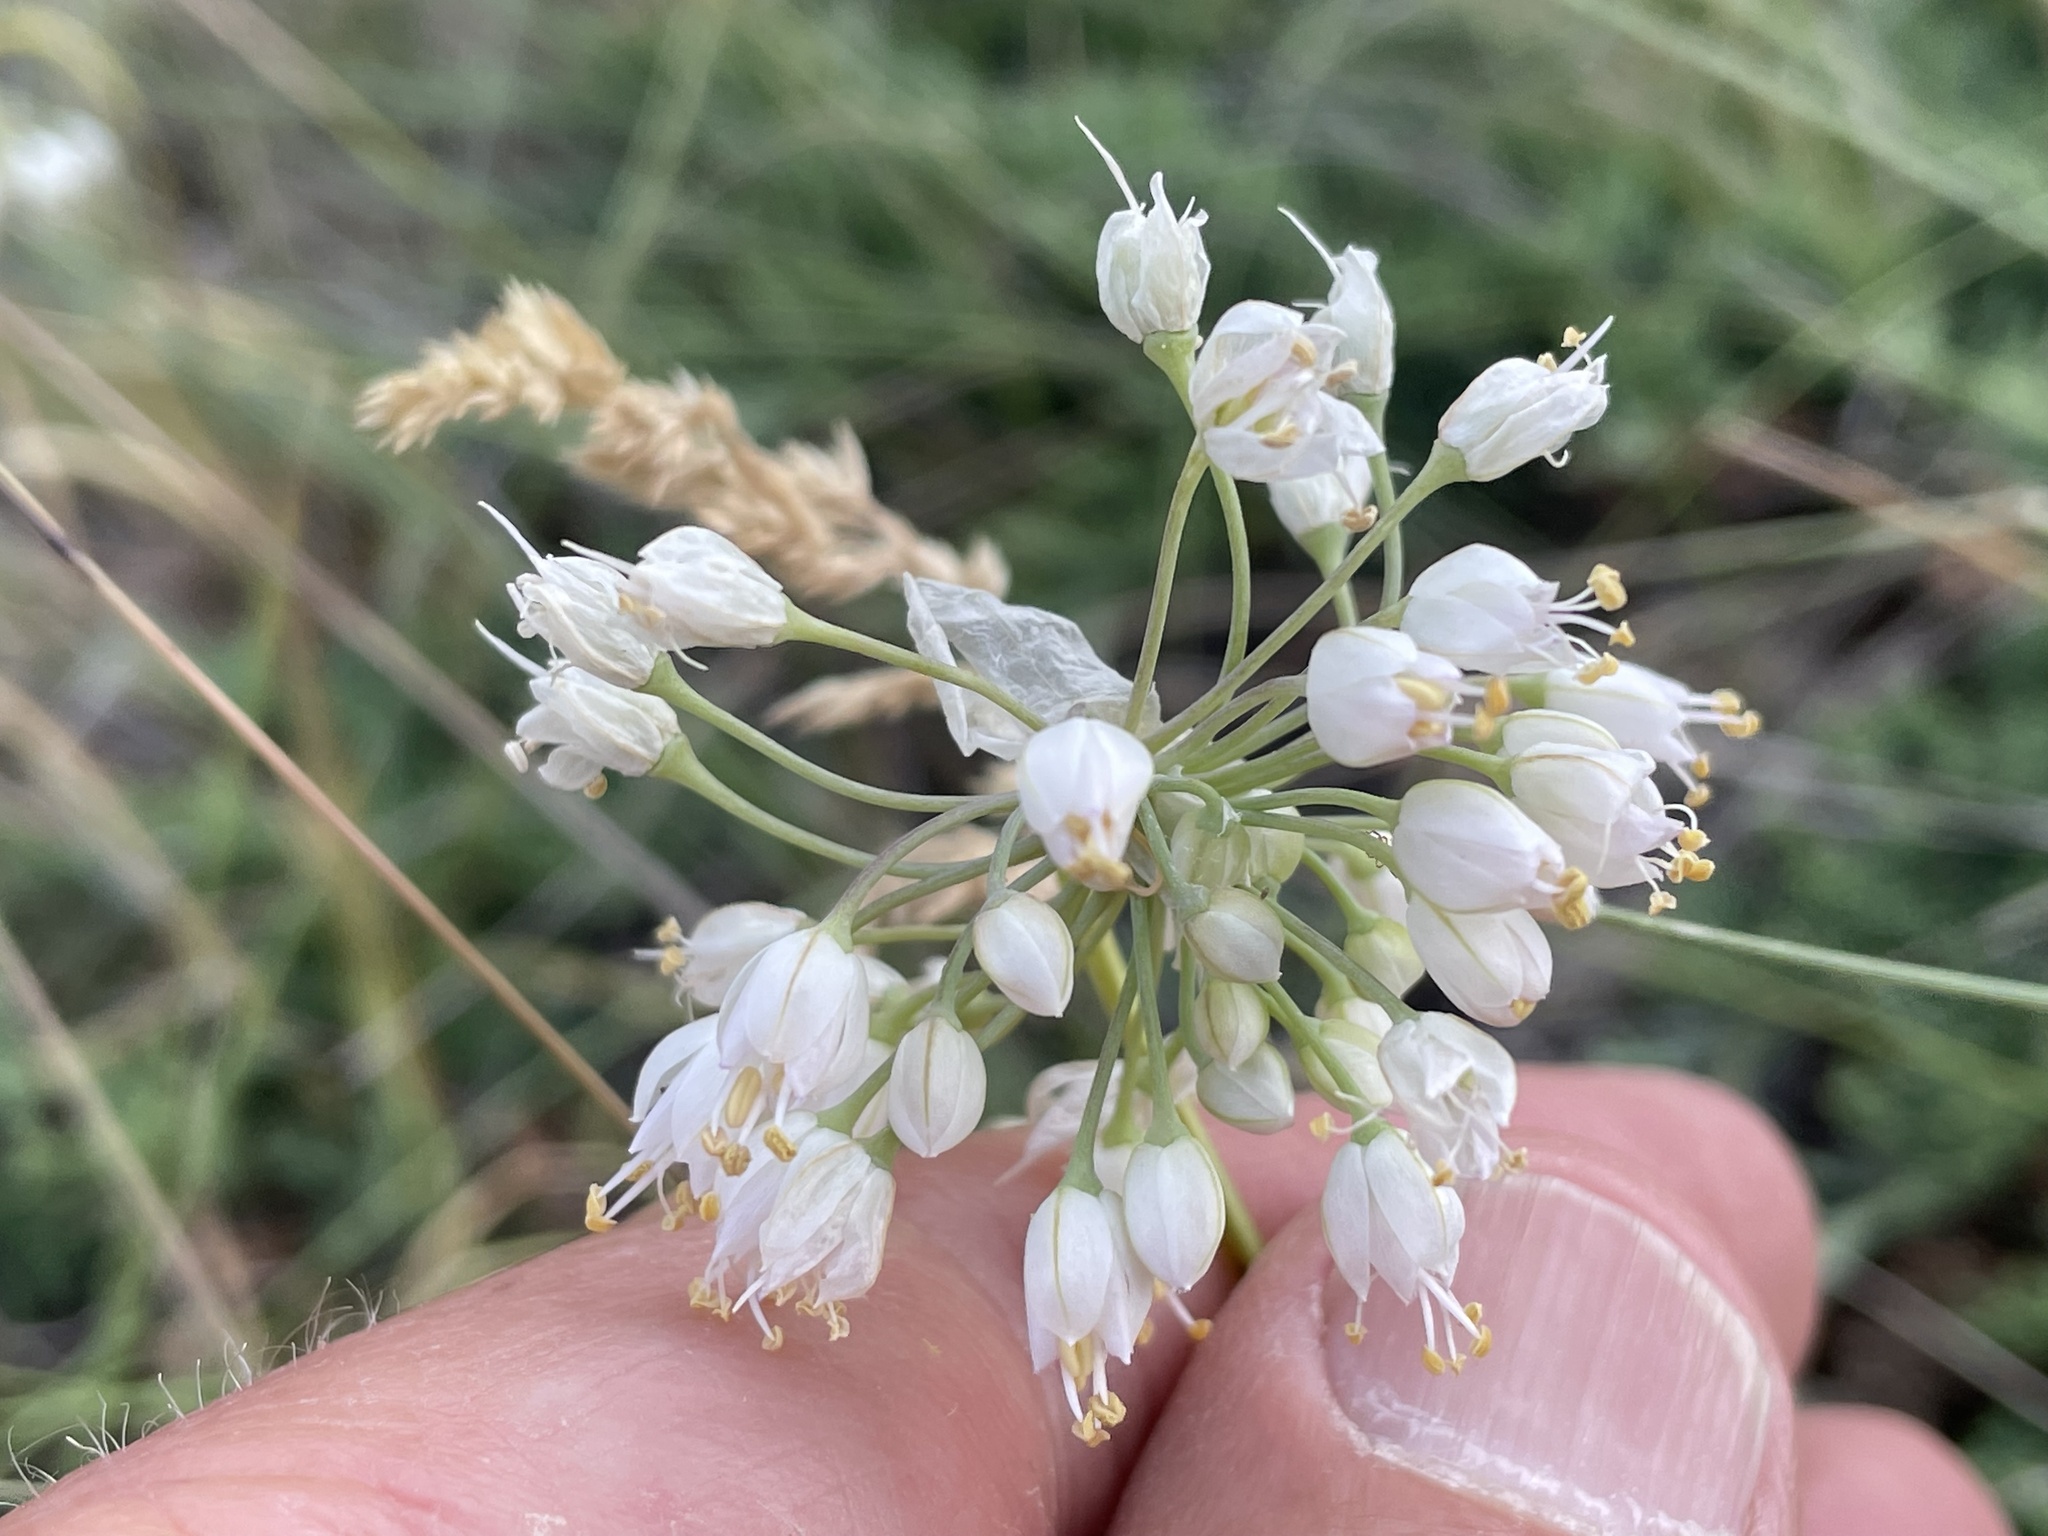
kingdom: Plantae
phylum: Tracheophyta
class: Liliopsida
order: Asparagales
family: Amaryllidaceae
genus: Allium
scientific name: Allium cernuum
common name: Nodding onion
